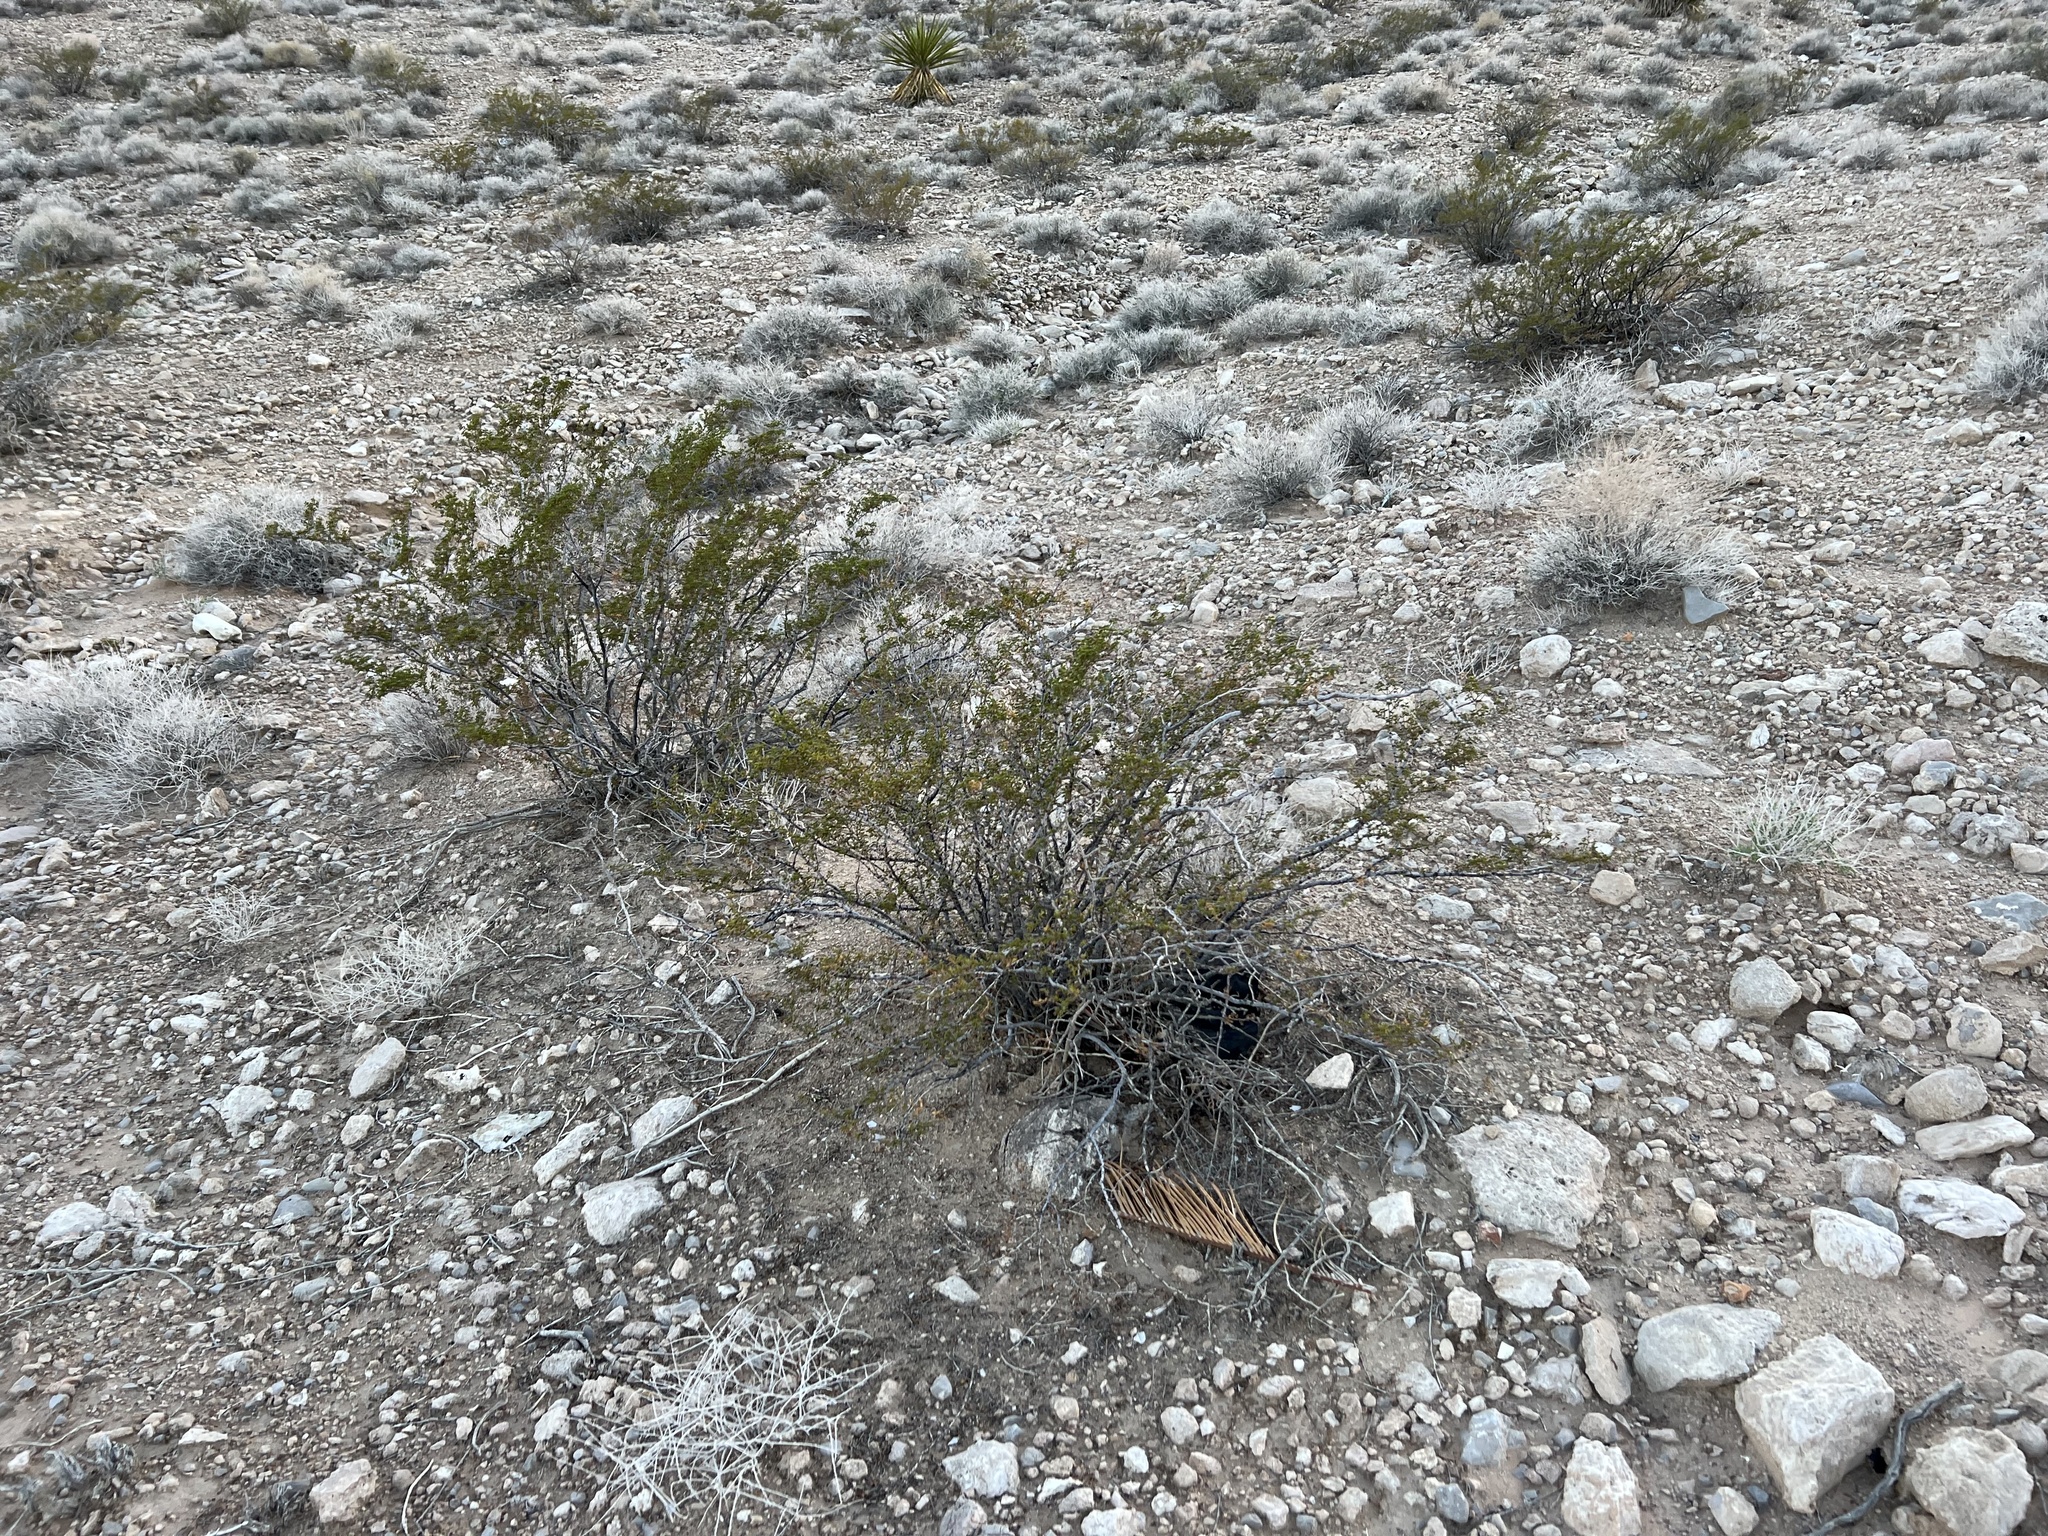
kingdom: Plantae
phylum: Tracheophyta
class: Magnoliopsida
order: Zygophyllales
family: Zygophyllaceae
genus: Larrea
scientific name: Larrea tridentata
